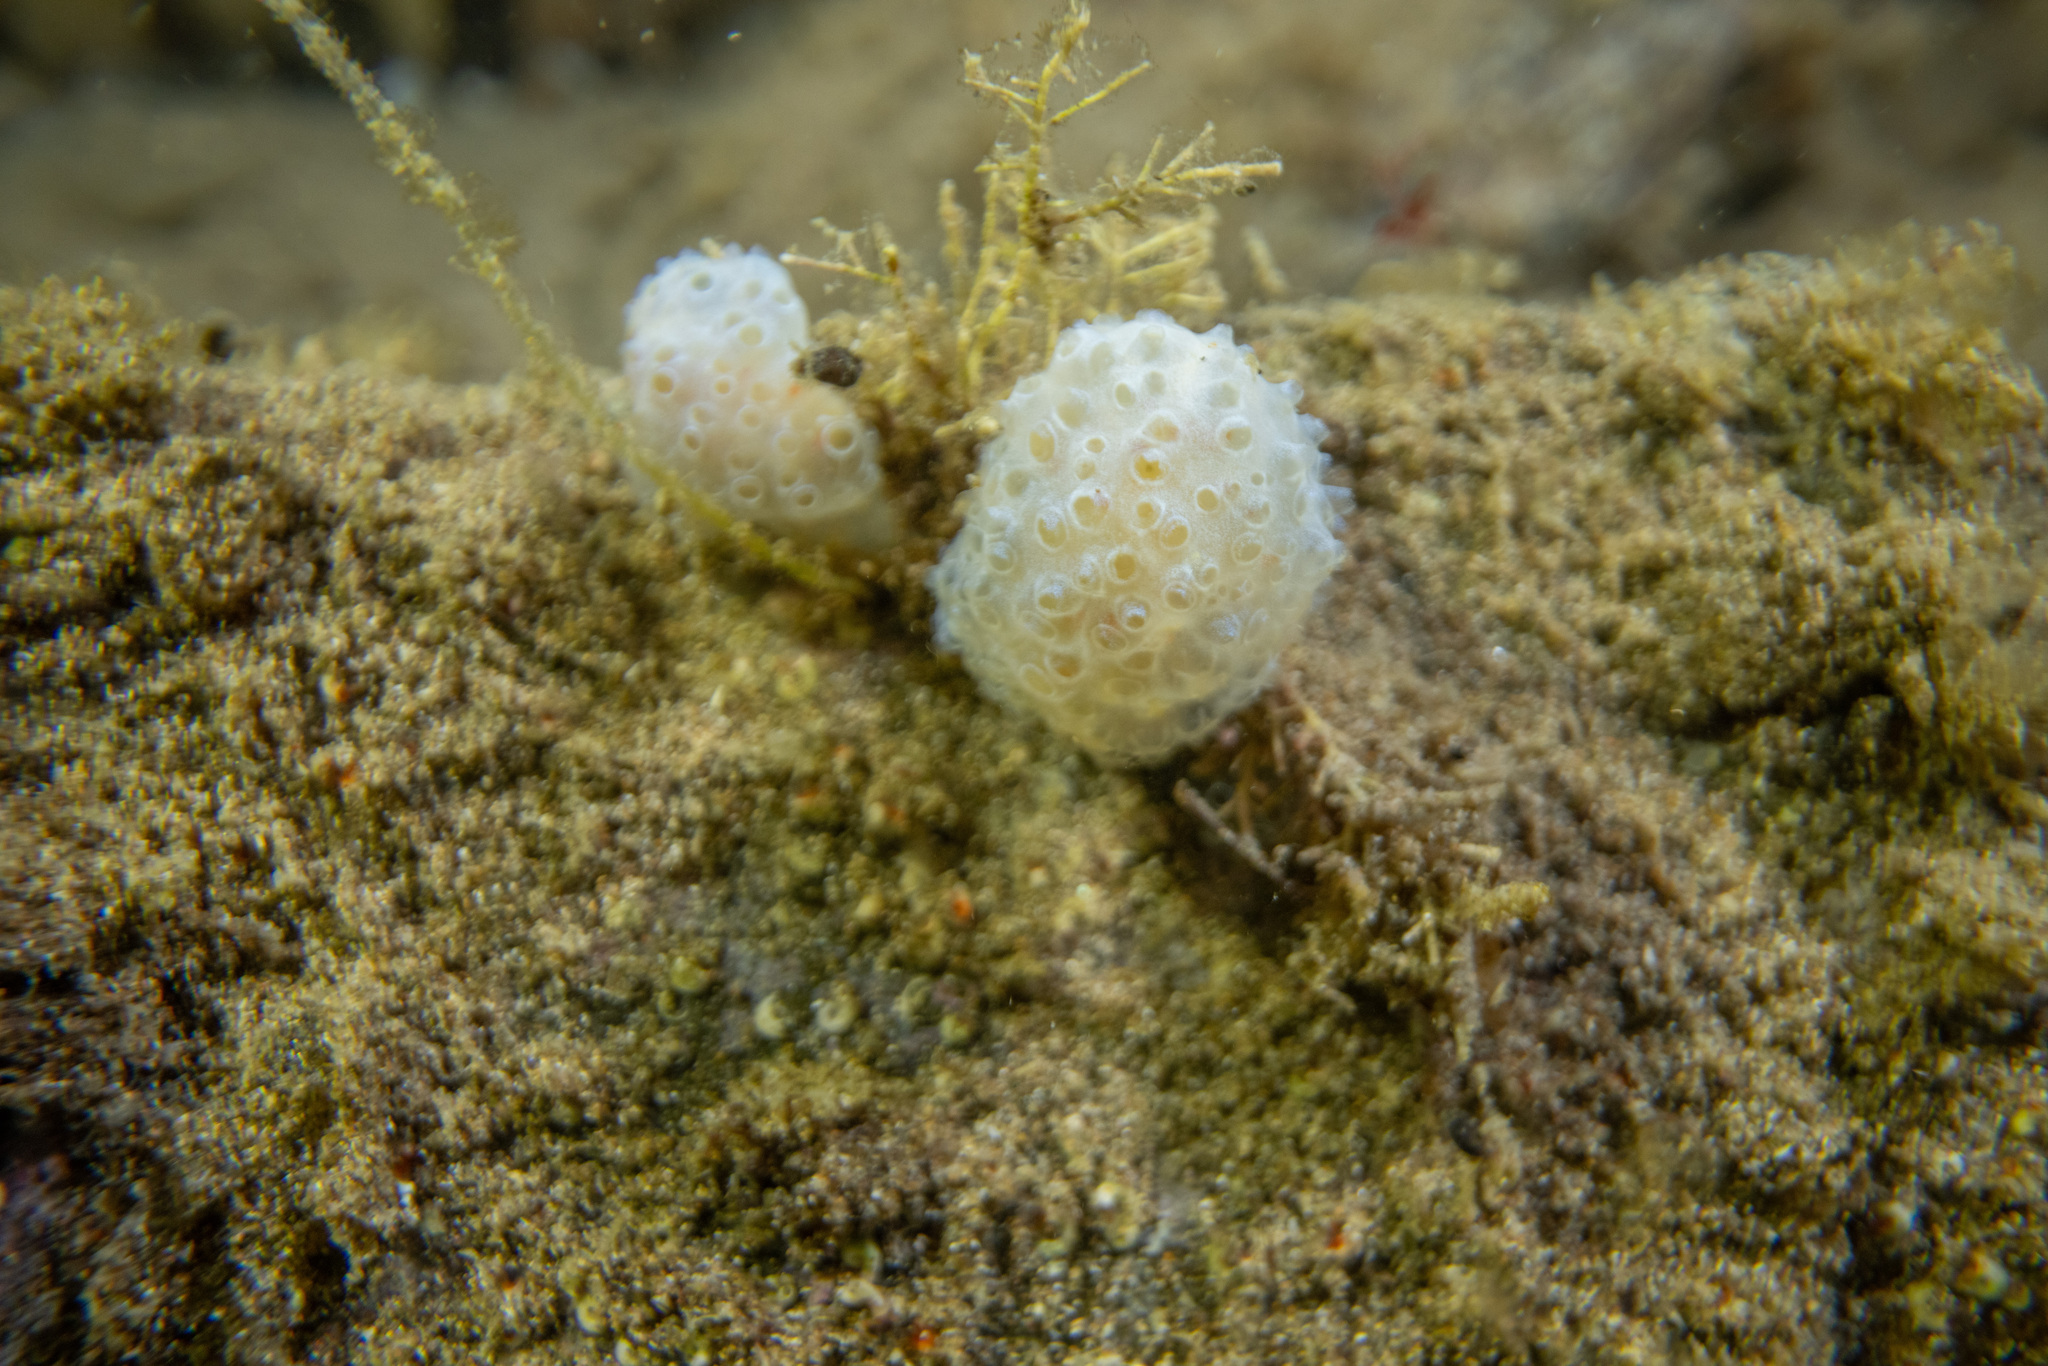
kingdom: Animalia
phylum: Chordata
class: Ascidiacea
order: Aplousobranchia
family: Holozoidae
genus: Hypsistozoa
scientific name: Hypsistozoa fasmeriana
